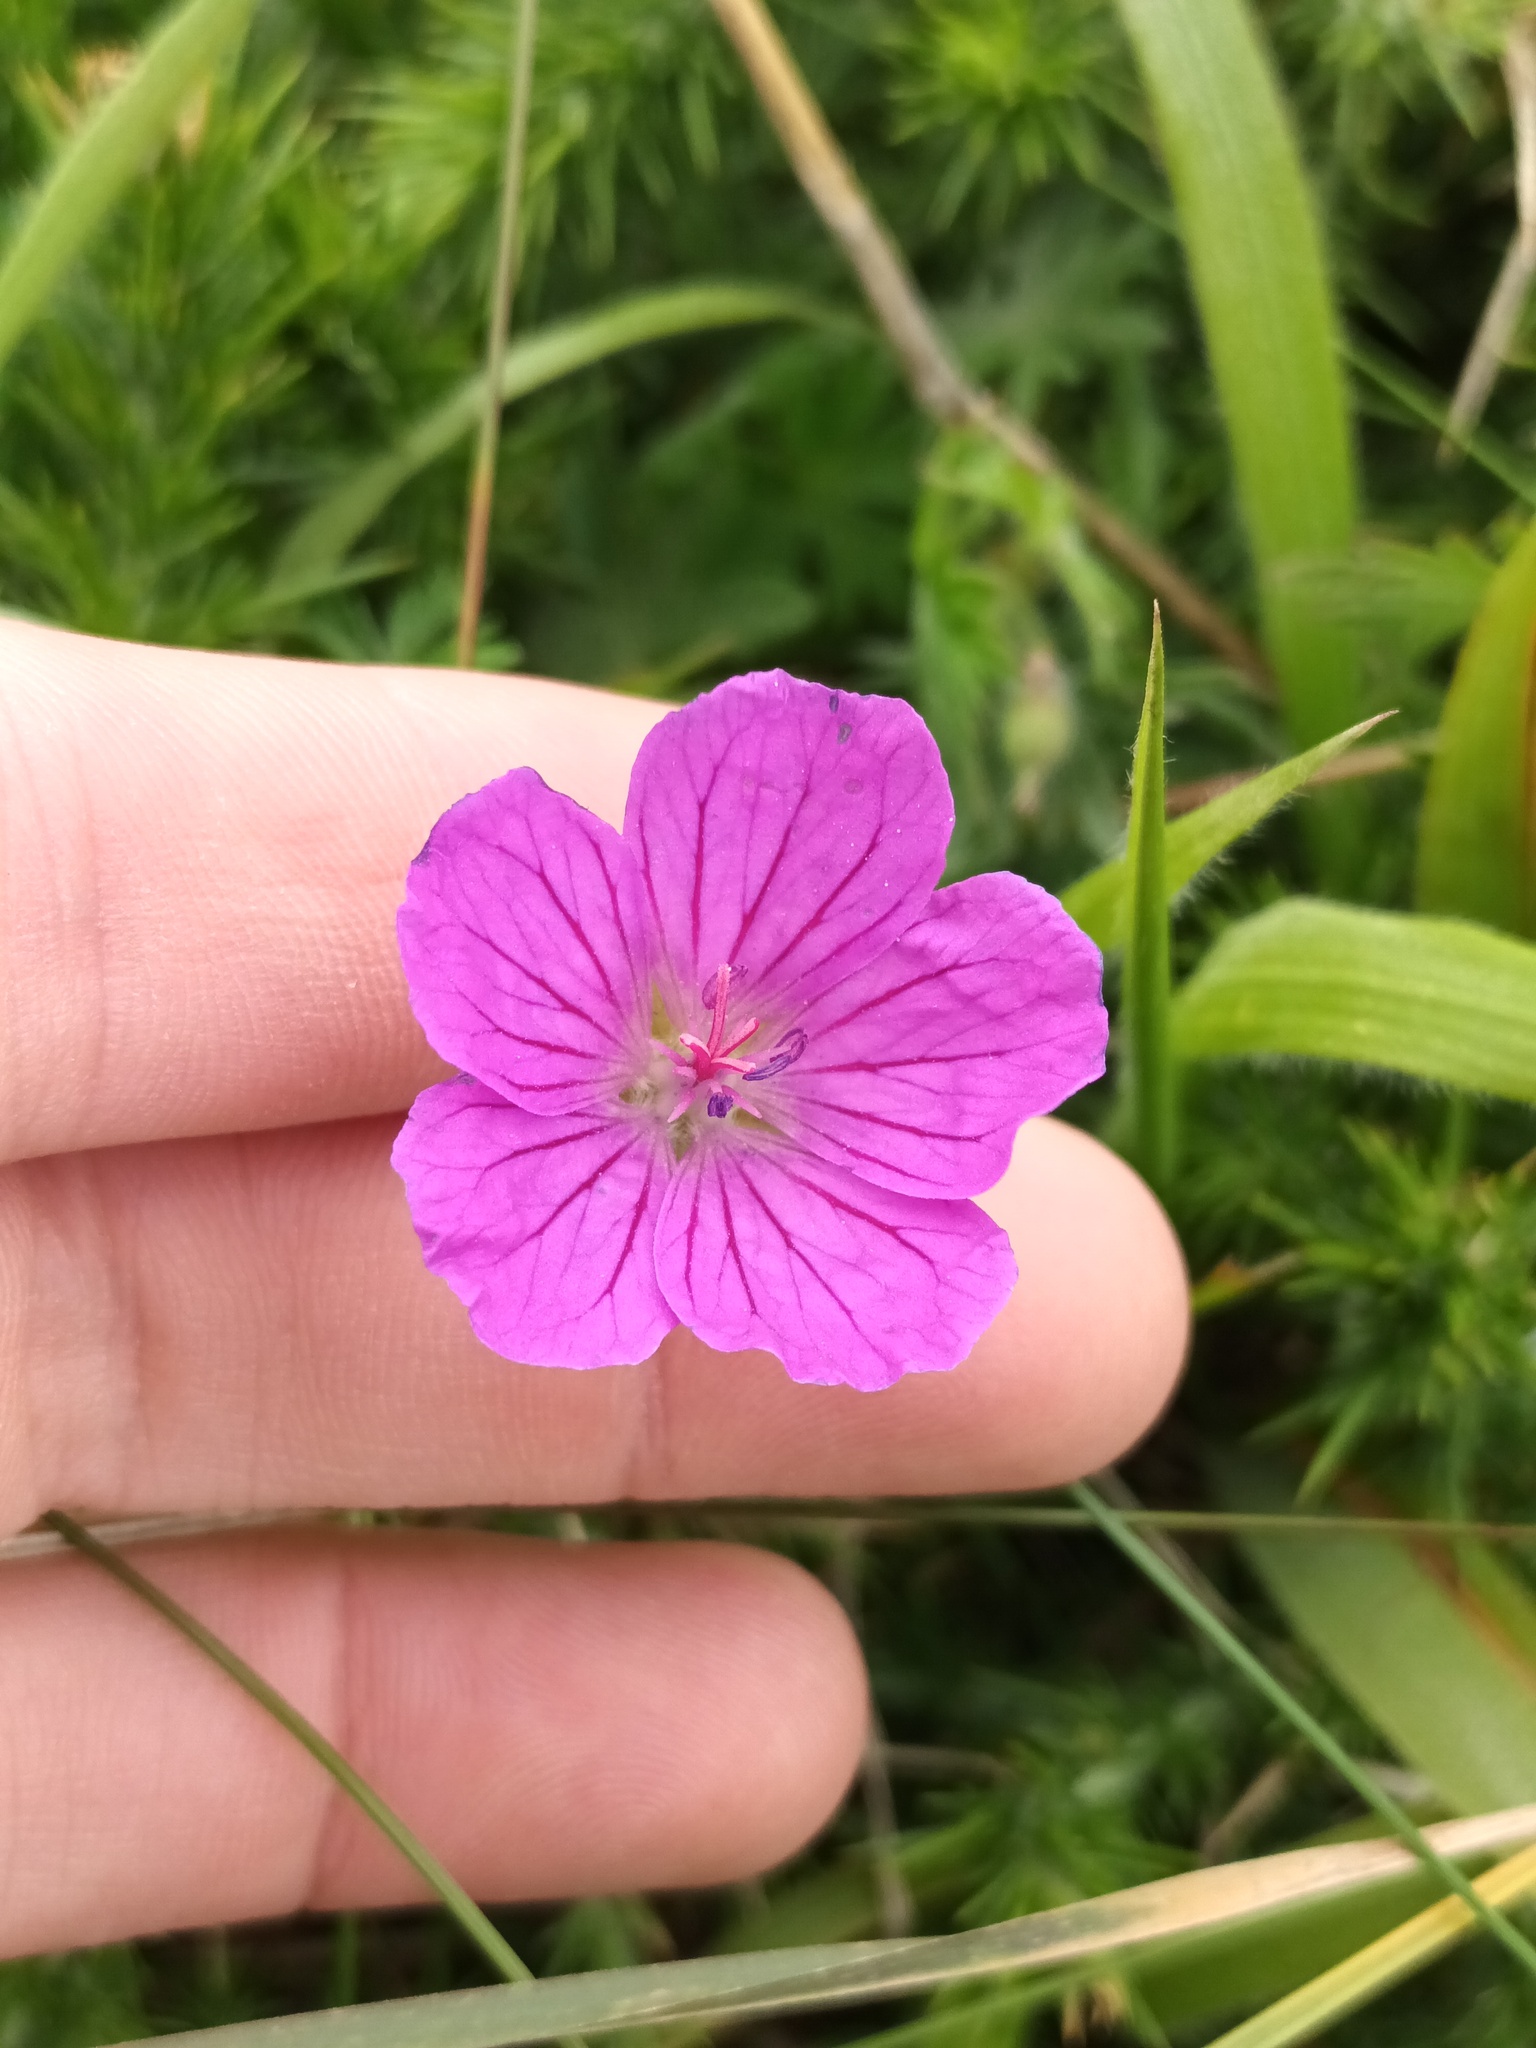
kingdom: Plantae
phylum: Tracheophyta
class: Magnoliopsida
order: Geraniales
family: Geraniaceae
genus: Geranium
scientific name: Geranium sanguineum
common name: Bloody crane's-bill
